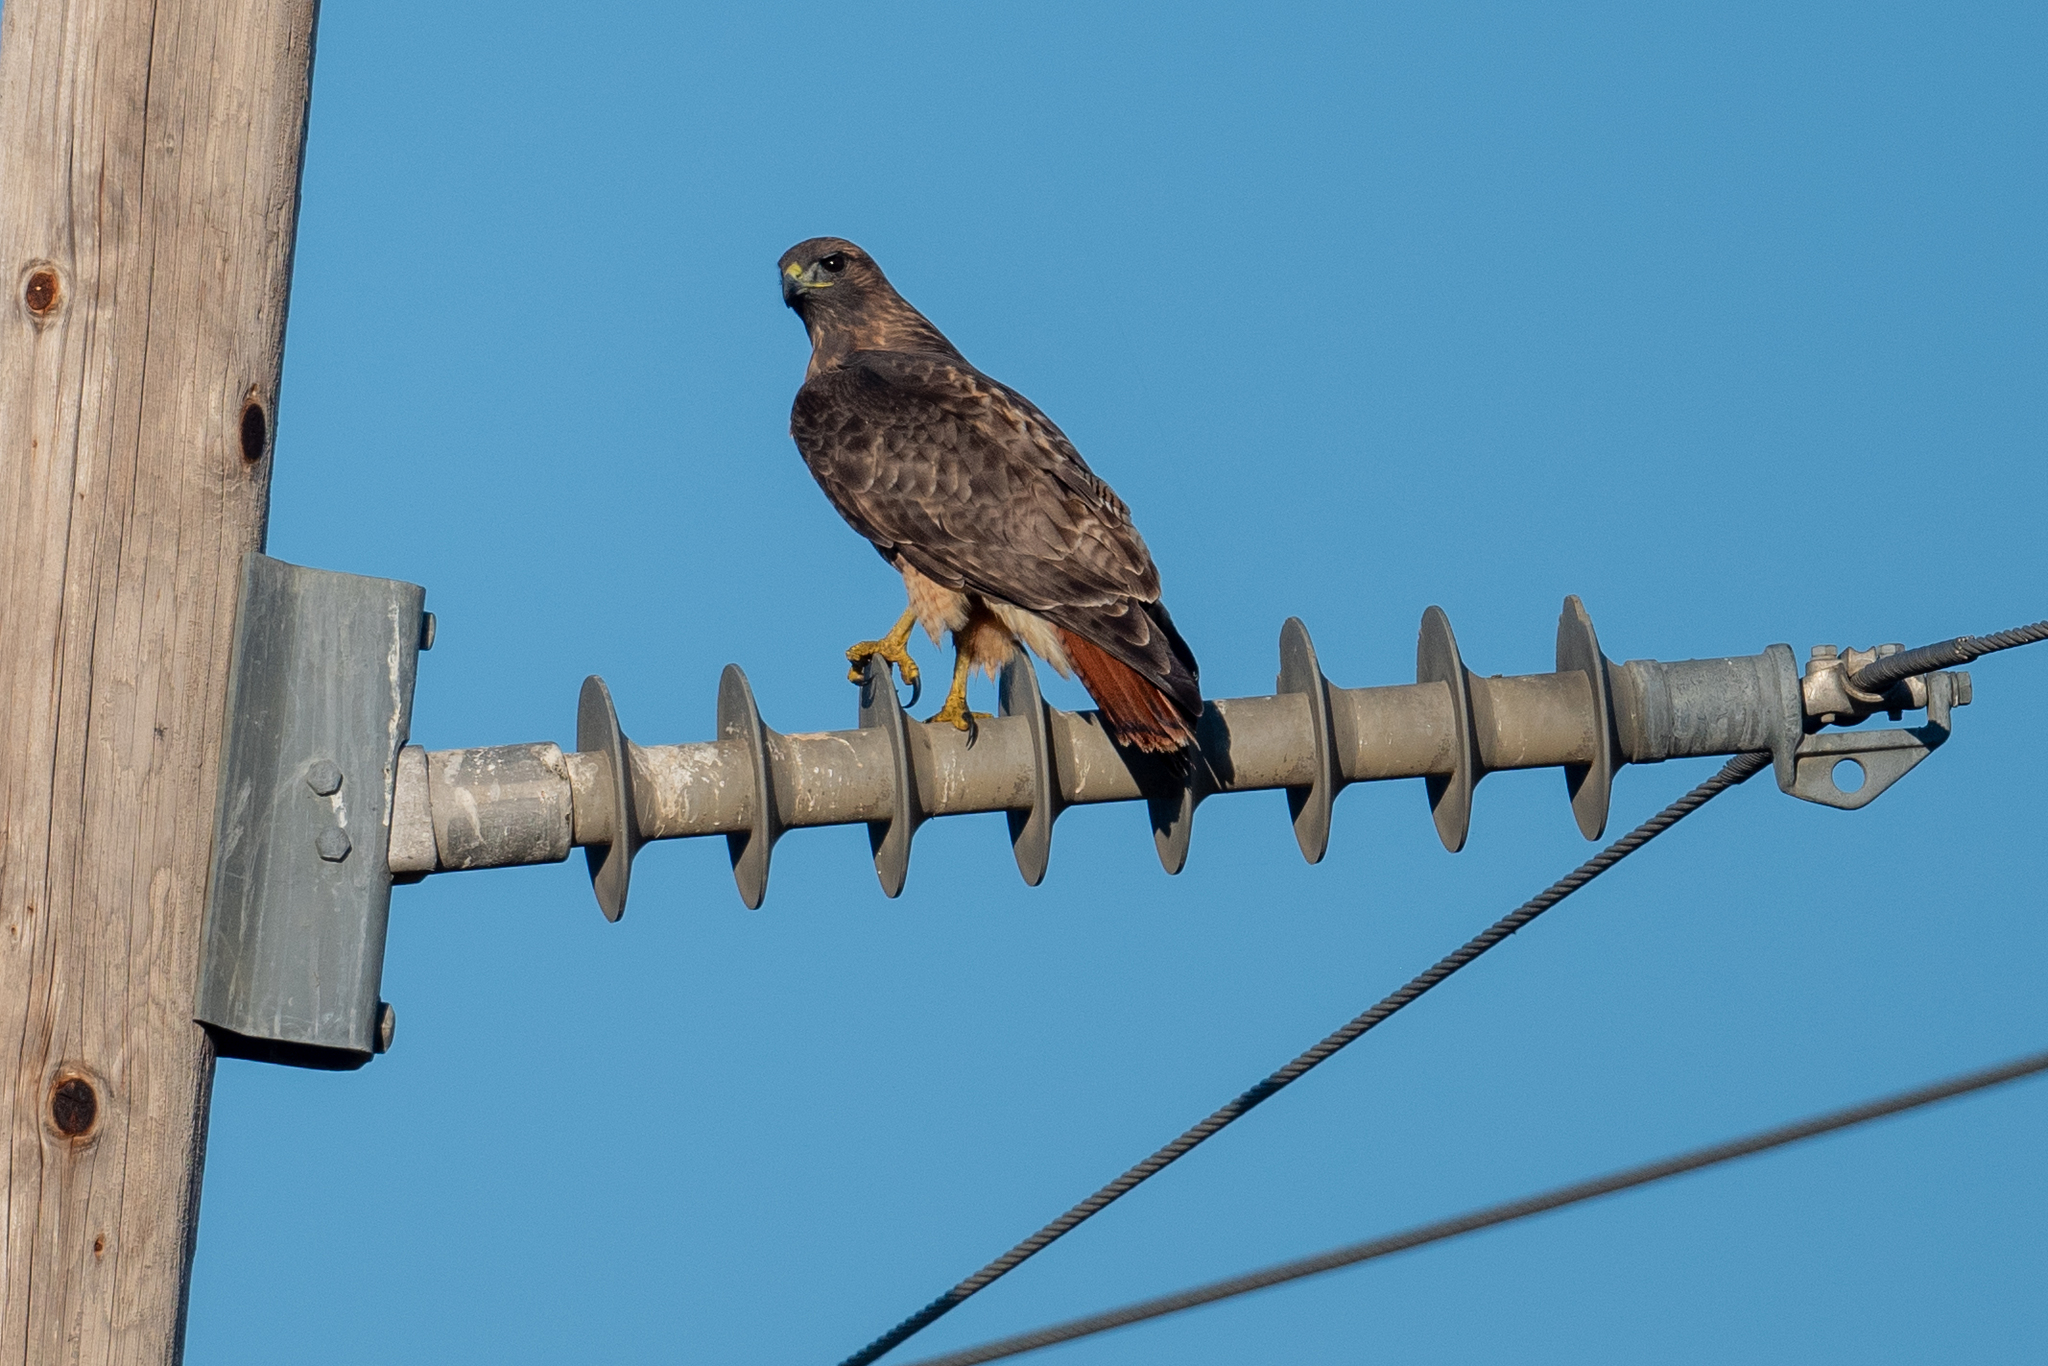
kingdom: Animalia
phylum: Chordata
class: Aves
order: Accipitriformes
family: Accipitridae
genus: Buteo
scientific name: Buteo jamaicensis
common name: Red-tailed hawk
